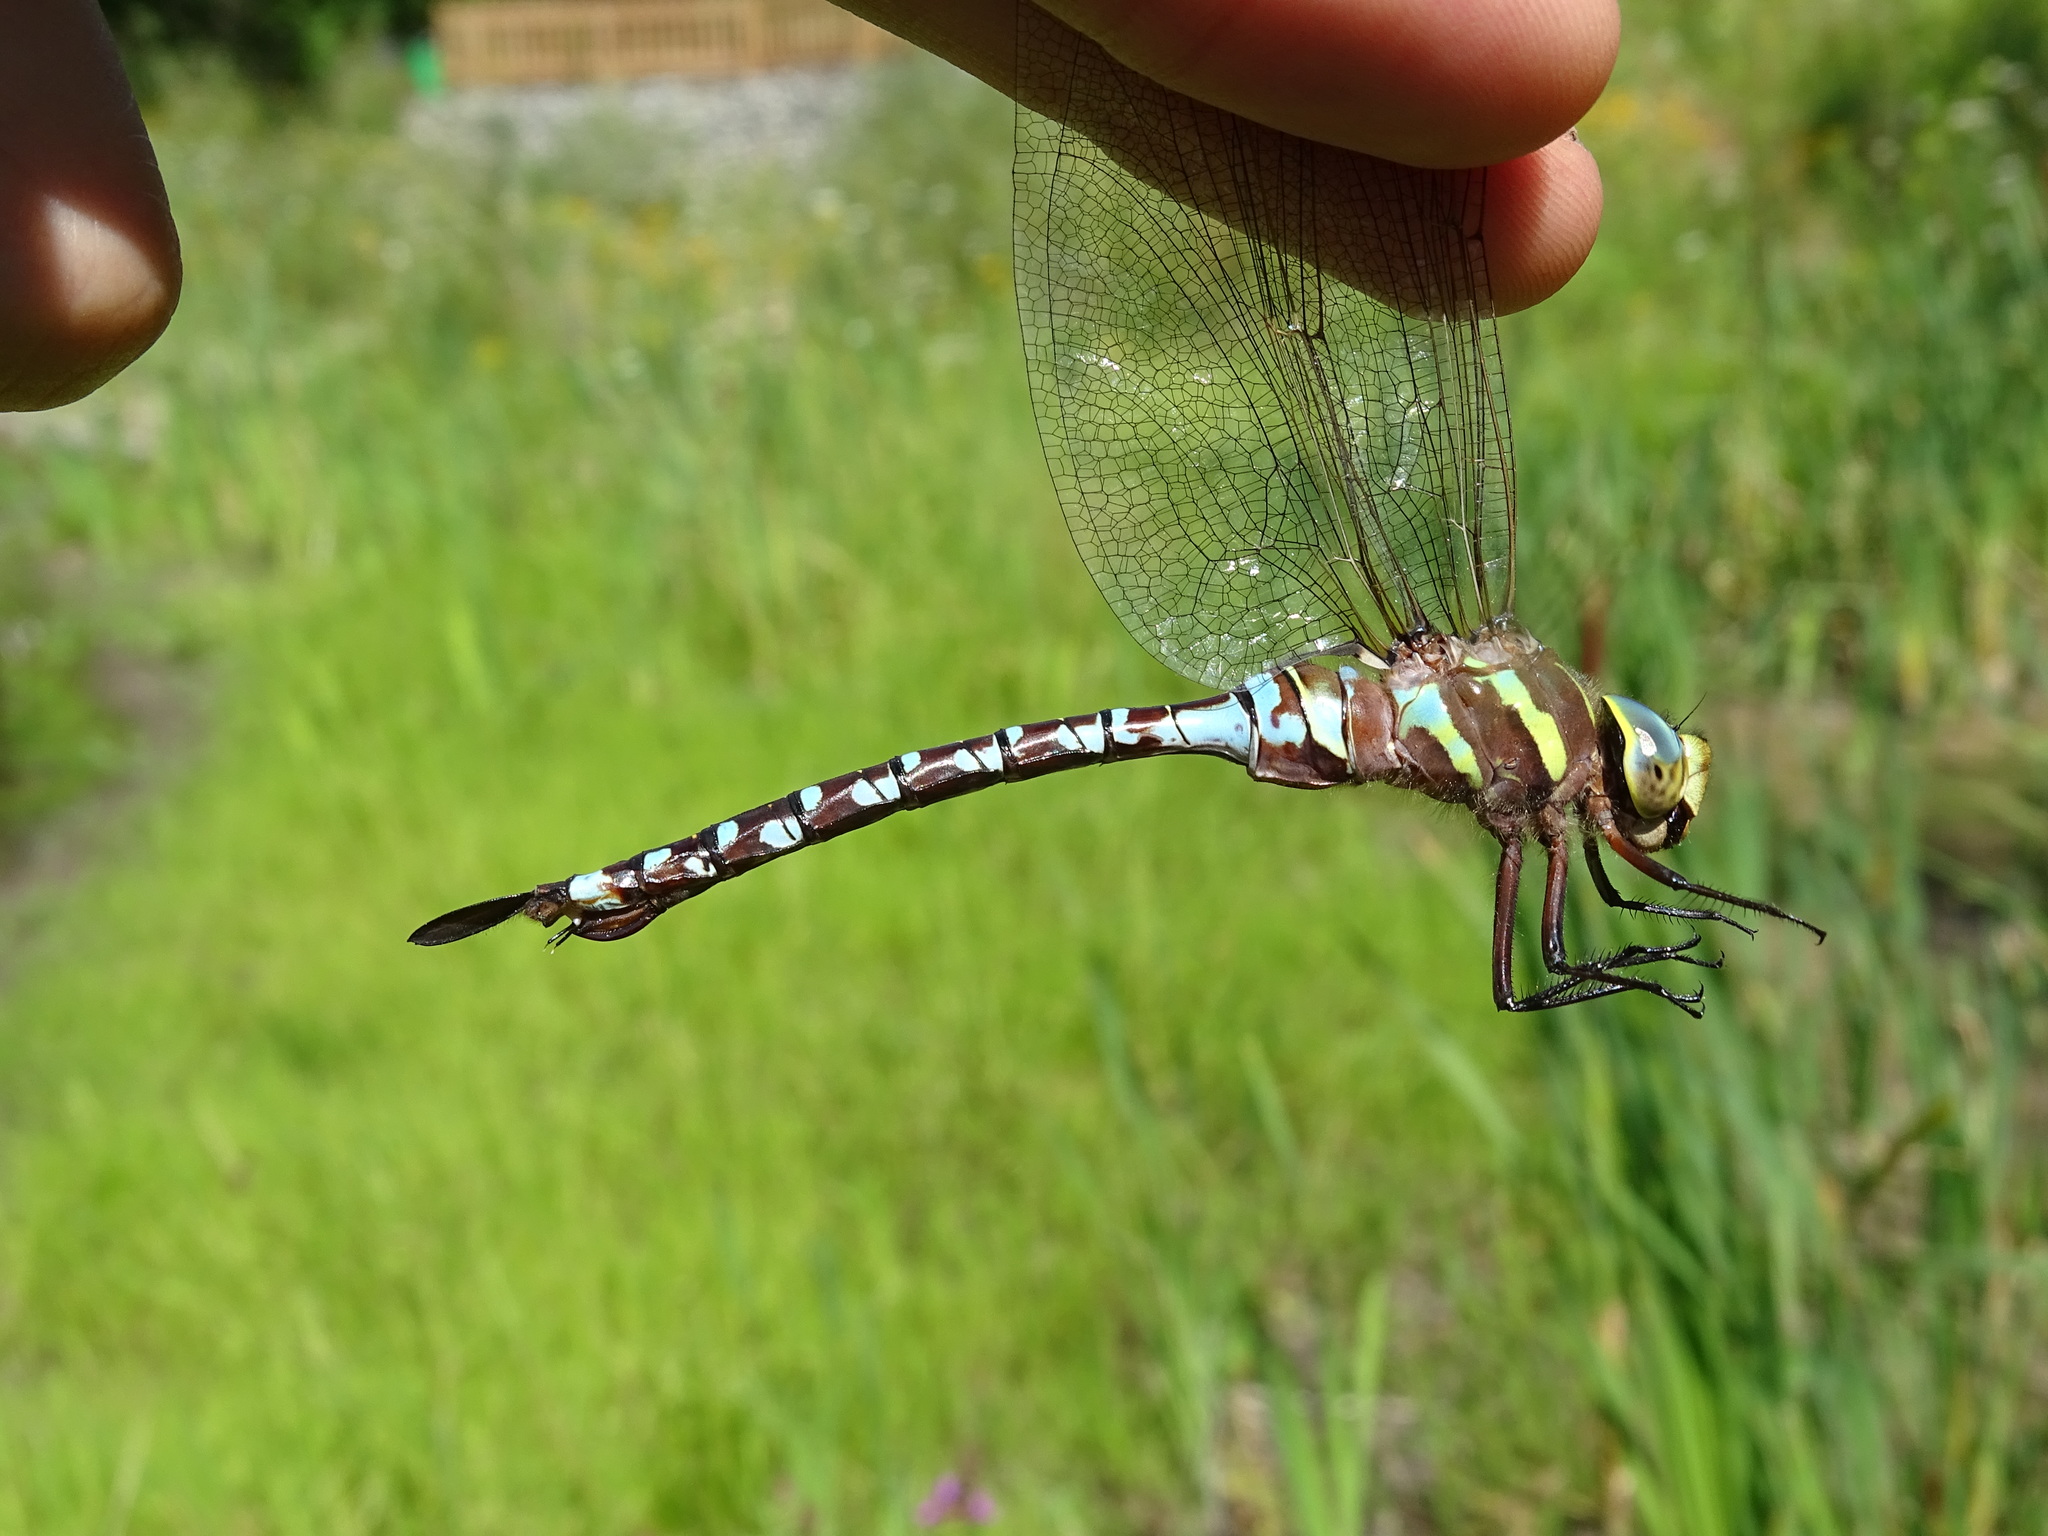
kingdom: Animalia
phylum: Arthropoda
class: Insecta
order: Odonata
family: Aeshnidae
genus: Aeshna
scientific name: Aeshna constricta
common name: Lance-tipped darner
